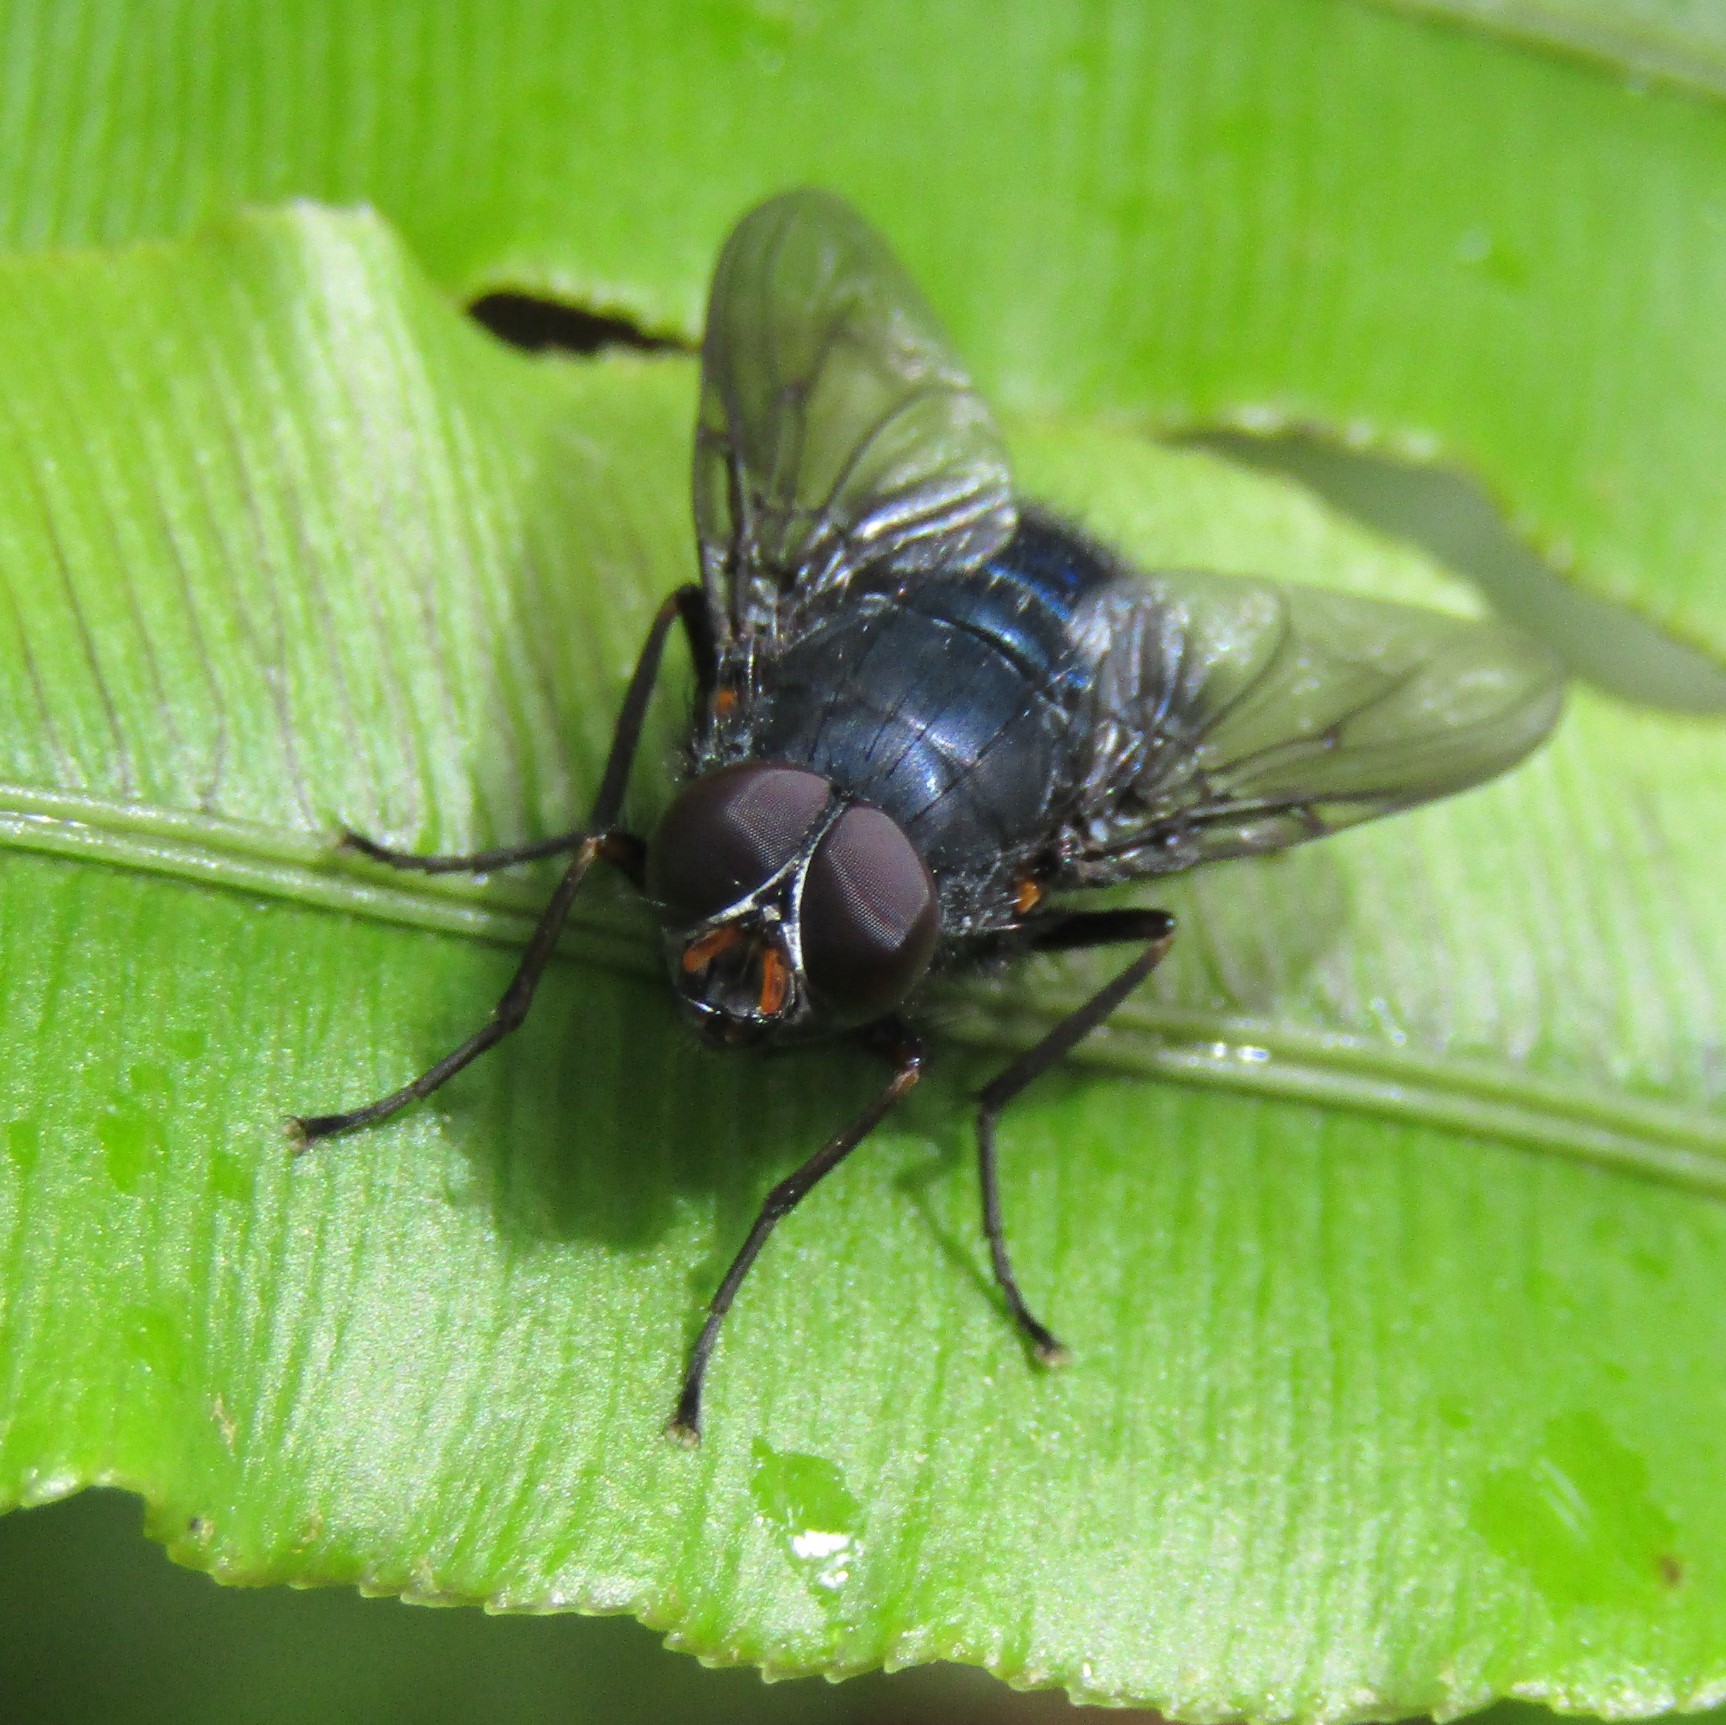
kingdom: Animalia
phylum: Arthropoda
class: Insecta
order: Diptera
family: Muscidae
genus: Calliphoroides
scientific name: Calliphoroides antennatis
